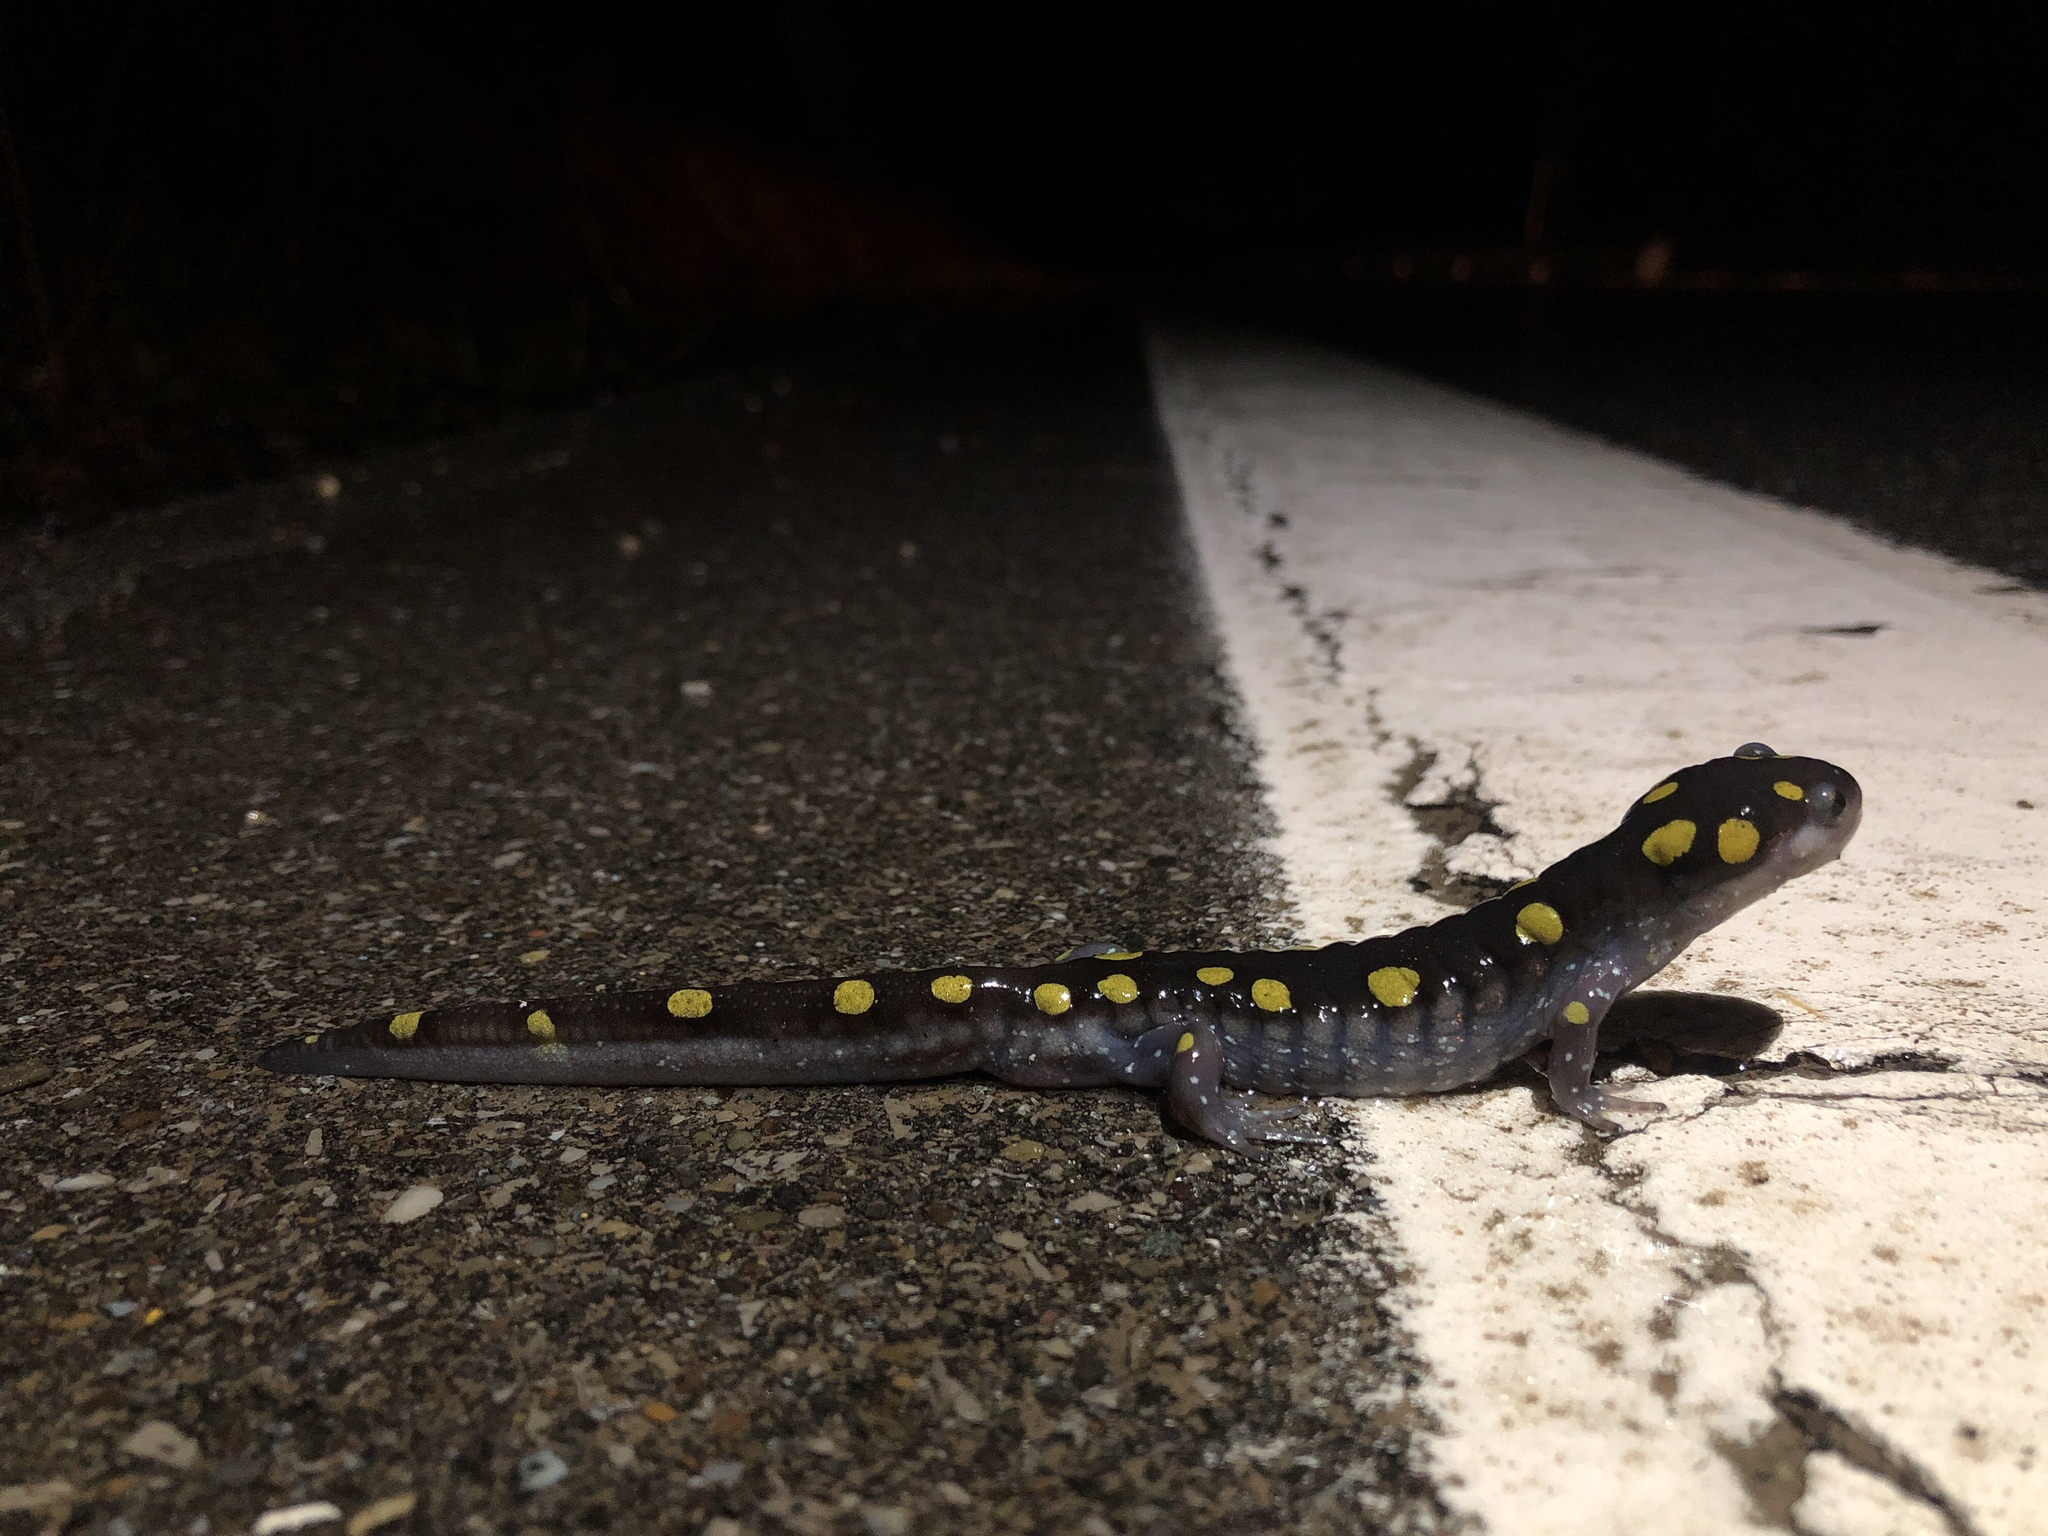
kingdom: Animalia
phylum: Chordata
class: Amphibia
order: Caudata
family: Ambystomatidae
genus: Ambystoma
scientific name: Ambystoma maculatum
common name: Spotted salamander
